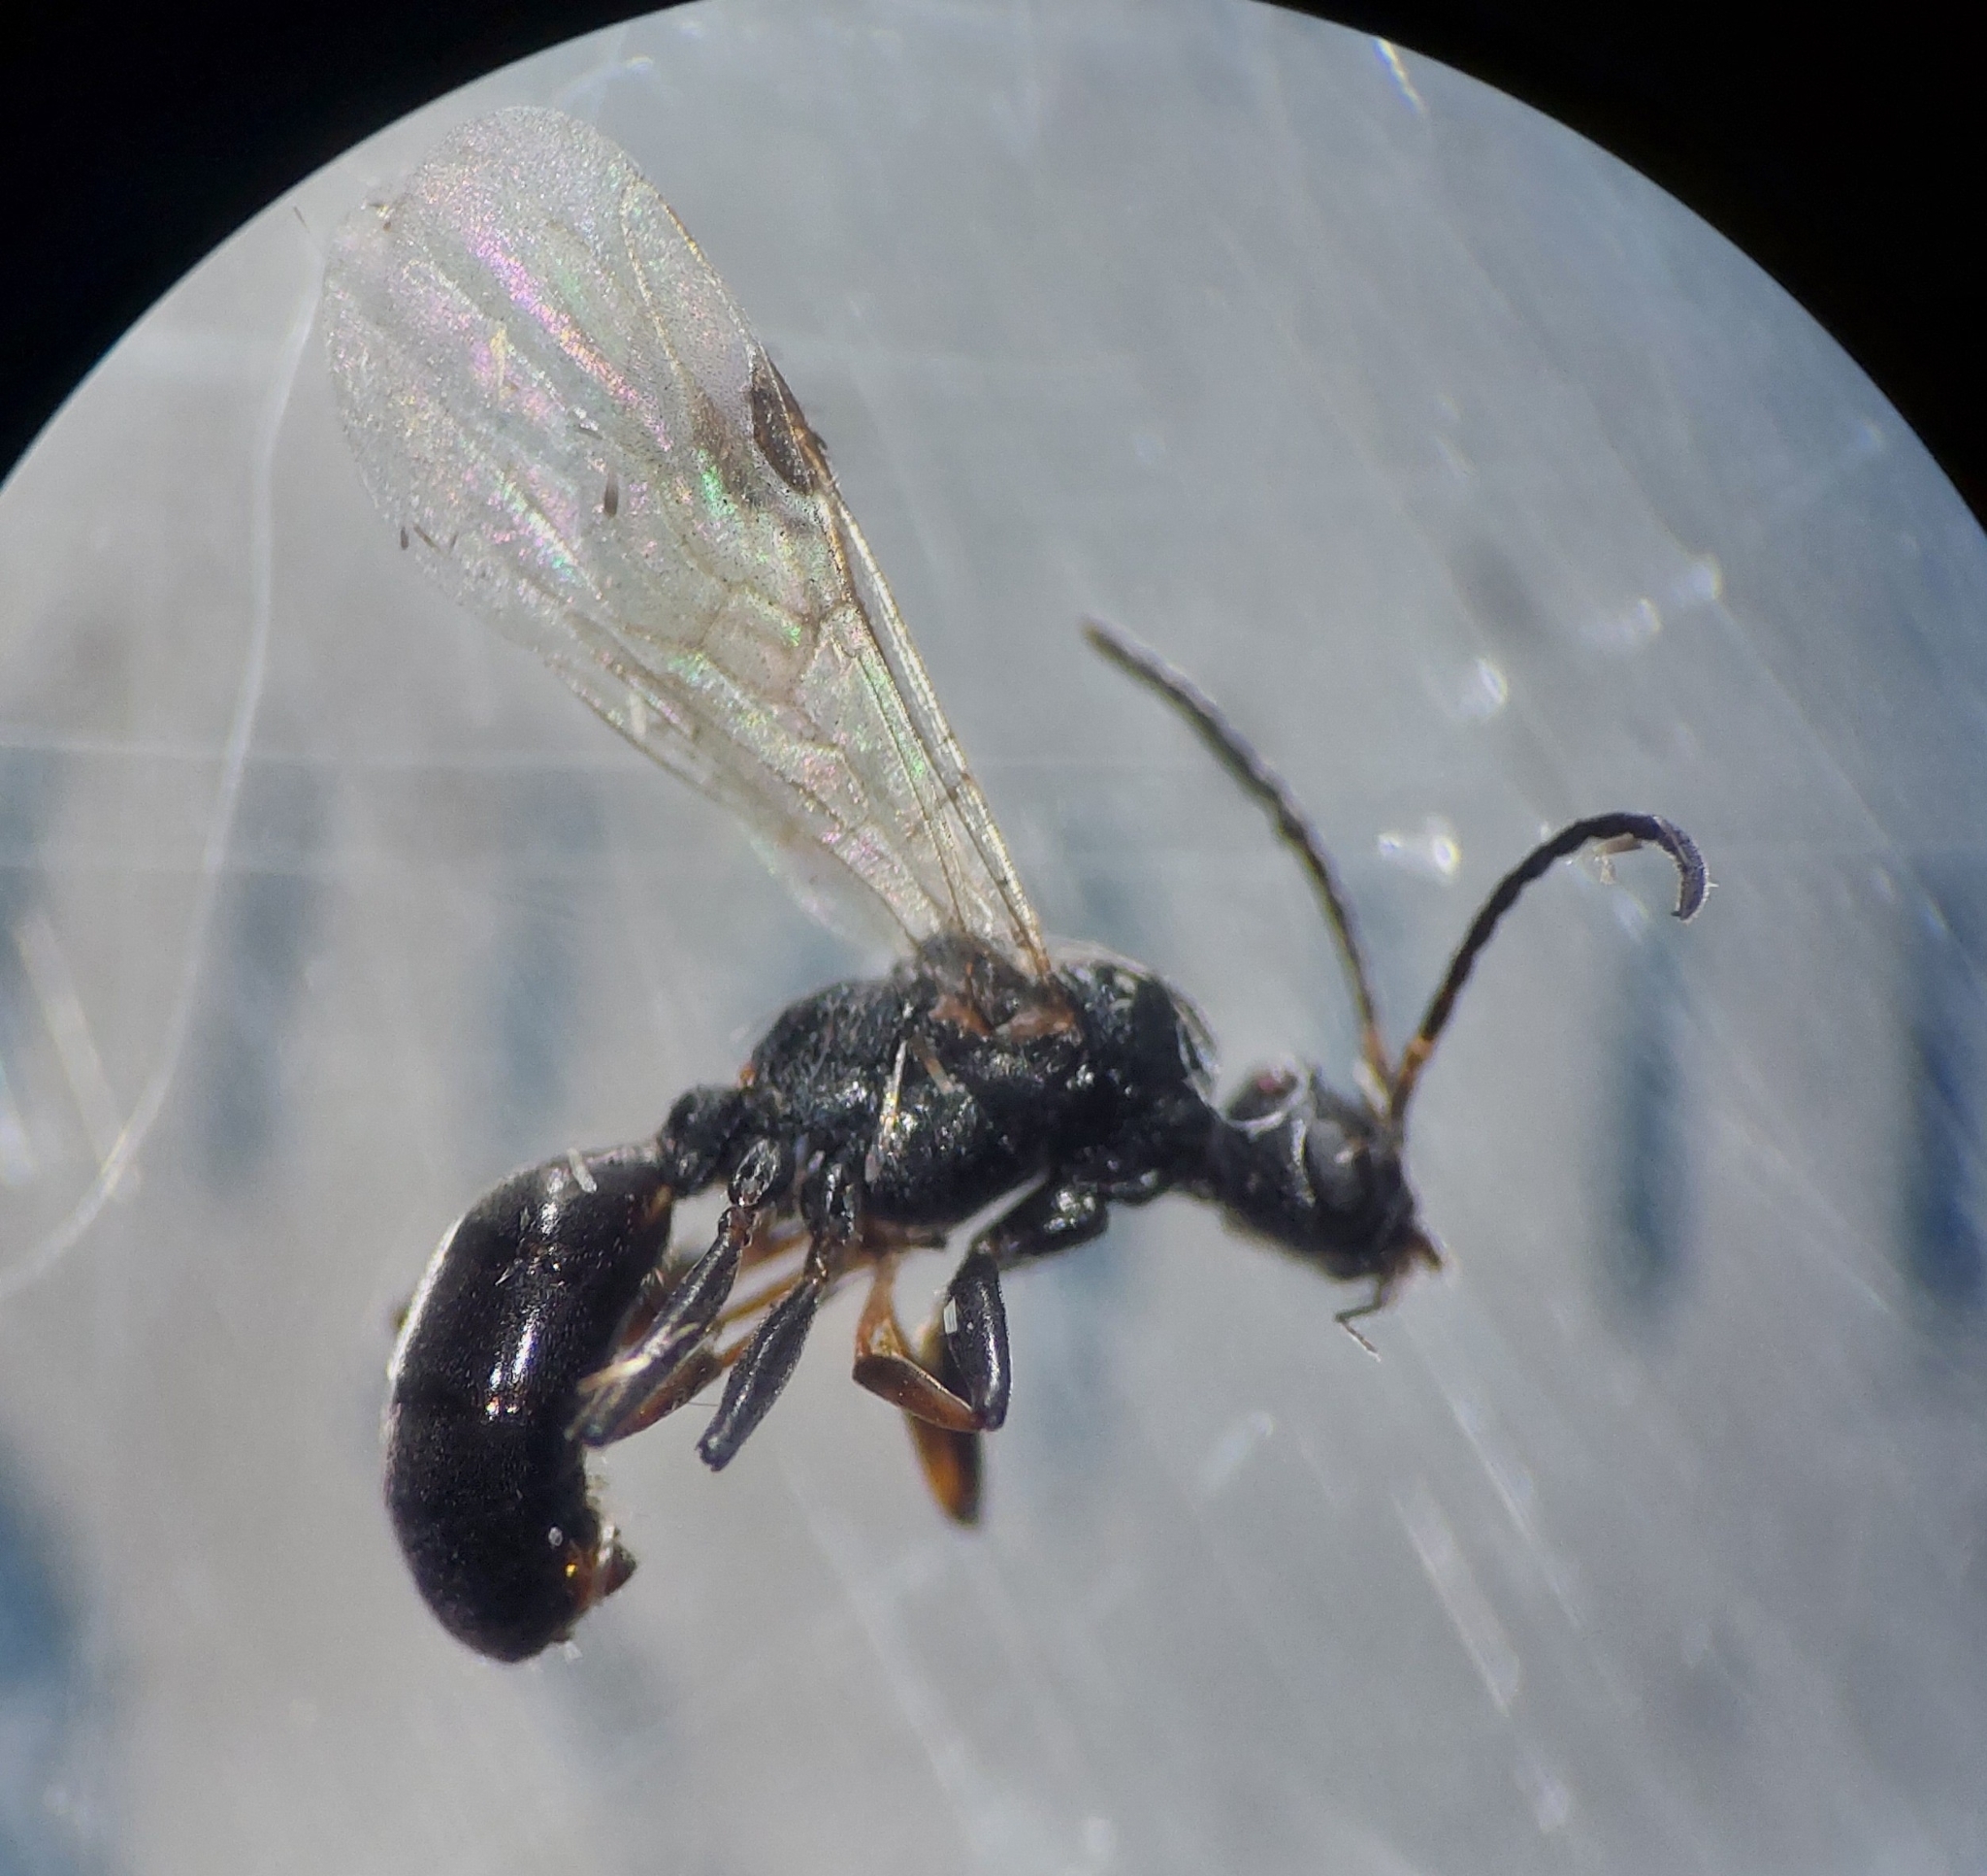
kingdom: Animalia
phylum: Arthropoda
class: Insecta
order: Hymenoptera
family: Formicidae
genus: Dolichoderus
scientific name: Dolichoderus quadripunctatus
